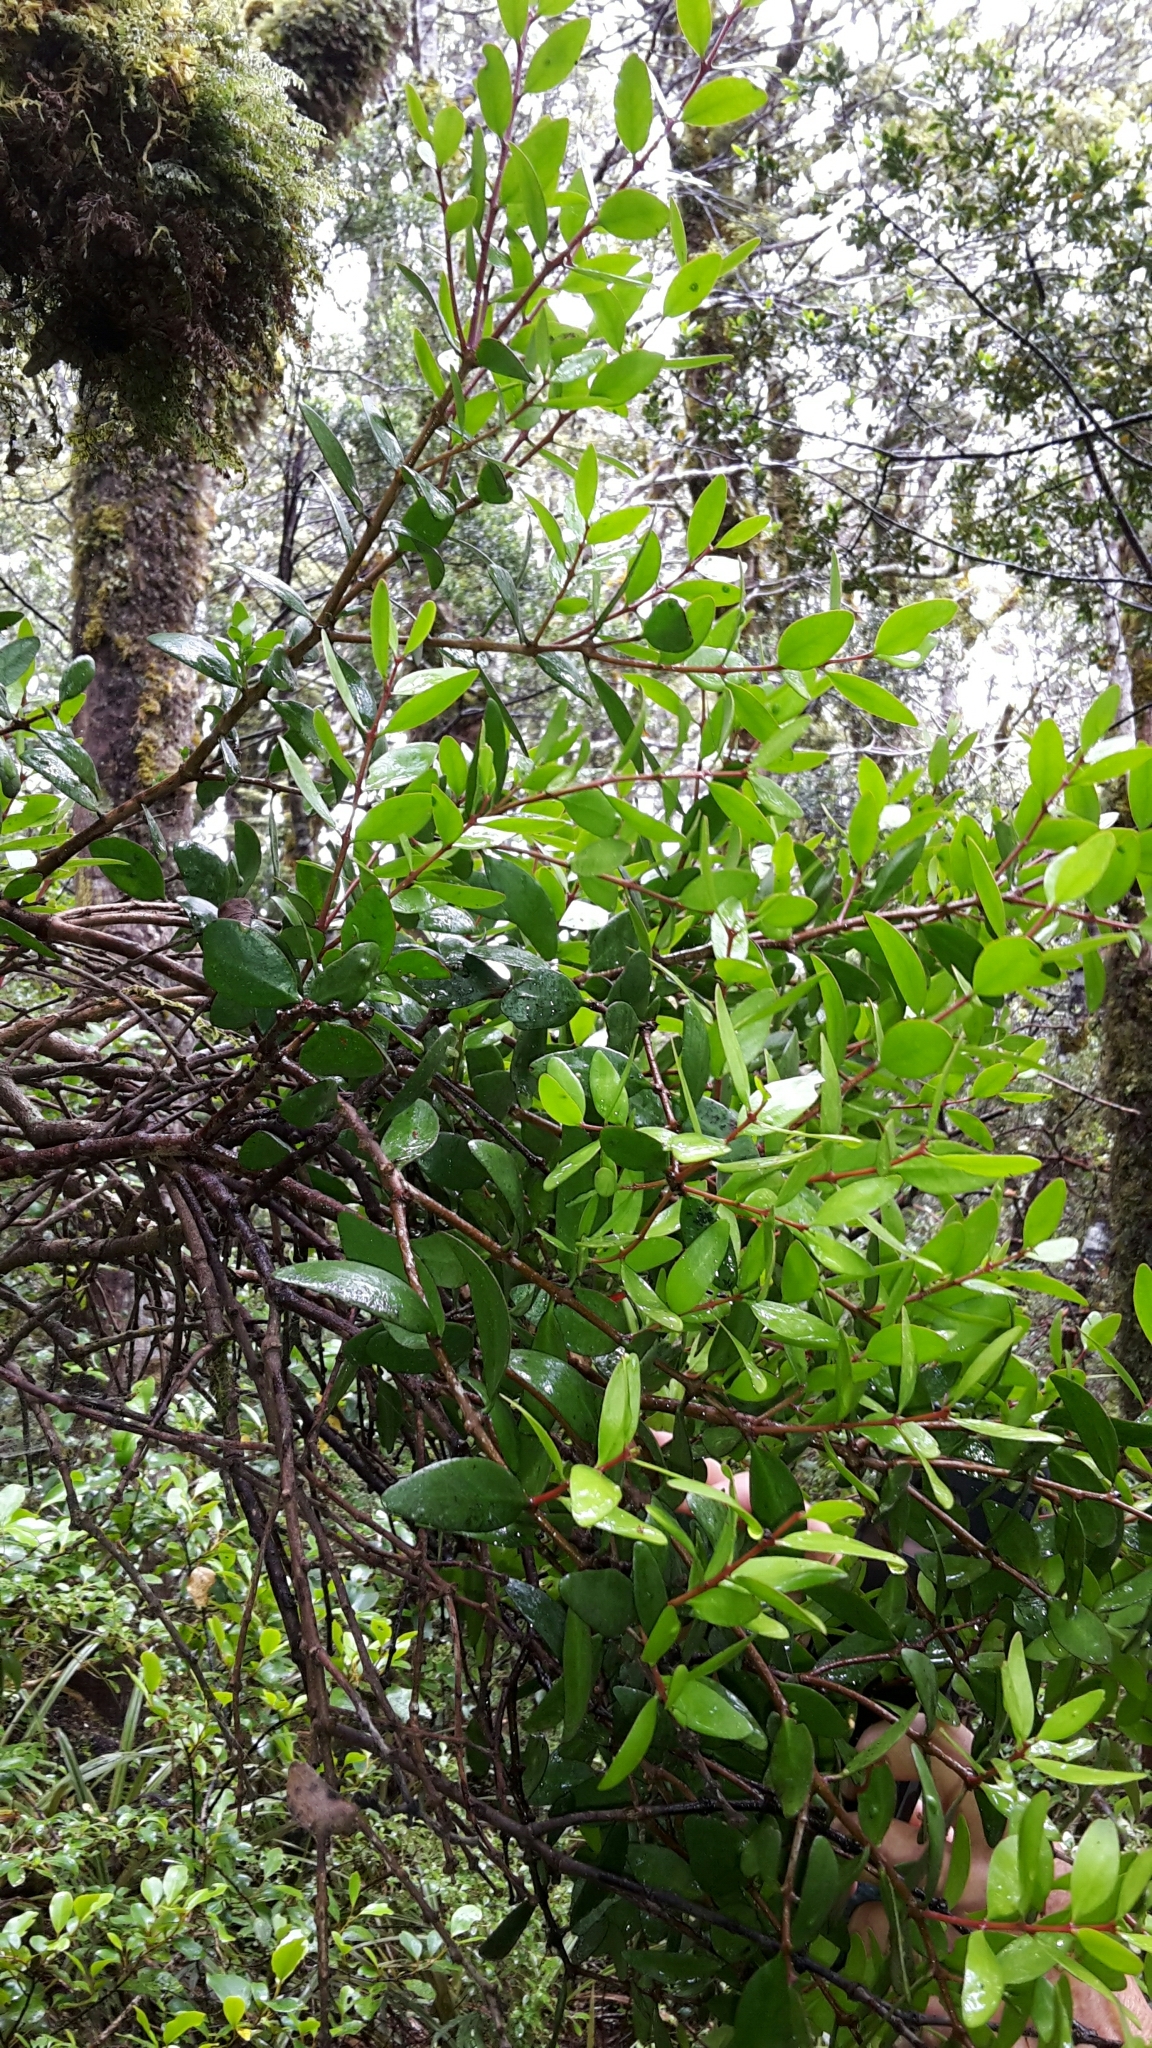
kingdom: Plantae
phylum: Tracheophyta
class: Magnoliopsida
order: Santalales
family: Loranthaceae
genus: Peraxilla
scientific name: Peraxilla tetrapetala
